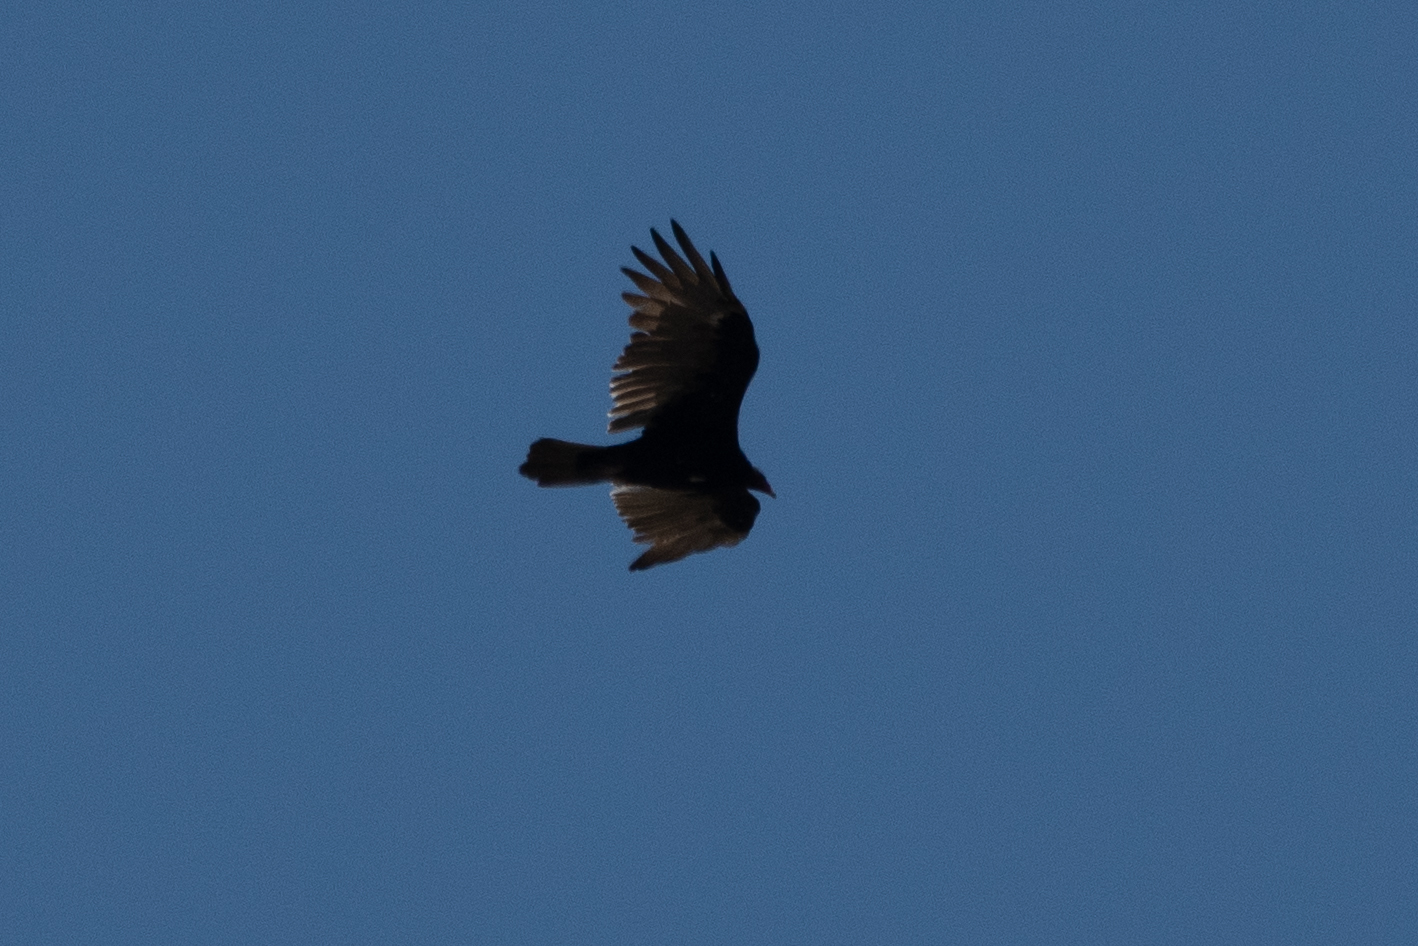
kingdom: Animalia
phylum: Chordata
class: Aves
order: Accipitriformes
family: Cathartidae
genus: Cathartes
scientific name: Cathartes aura
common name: Turkey vulture
